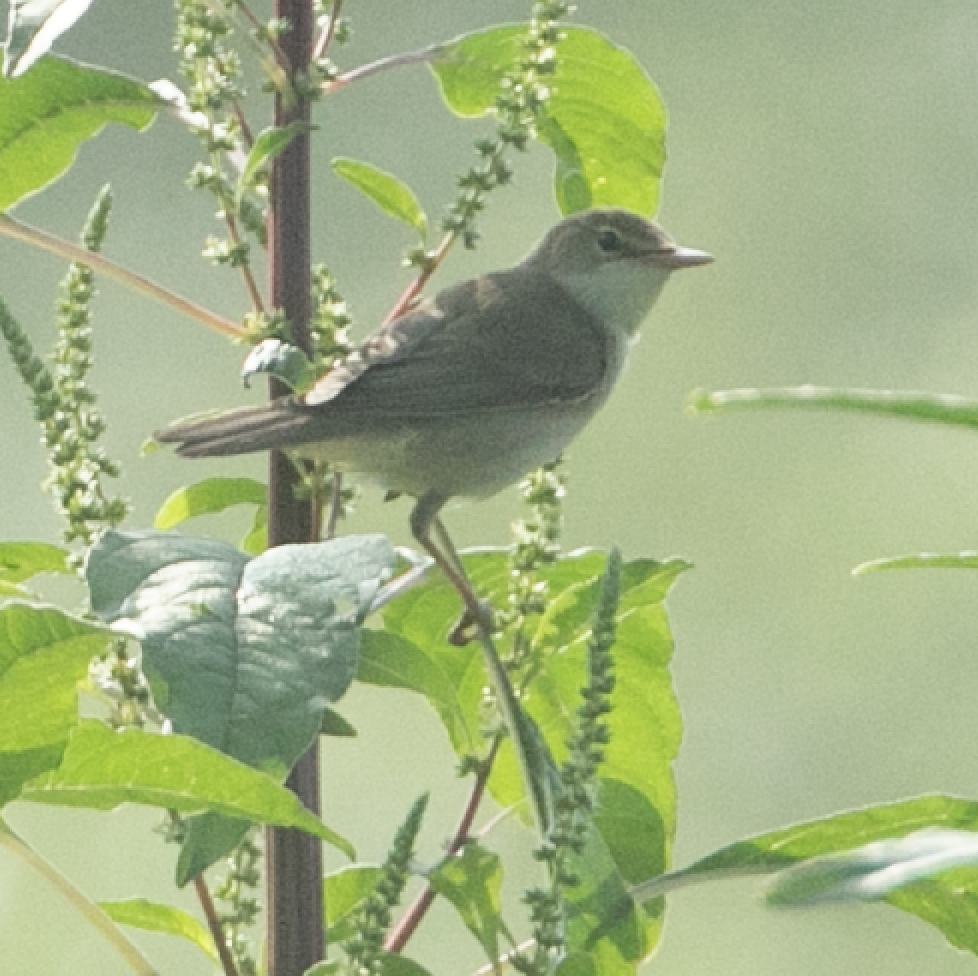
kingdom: Animalia
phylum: Chordata
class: Aves
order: Passeriformes
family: Acrocephalidae
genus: Acrocephalus
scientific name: Acrocephalus palustris
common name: Marsh warbler
